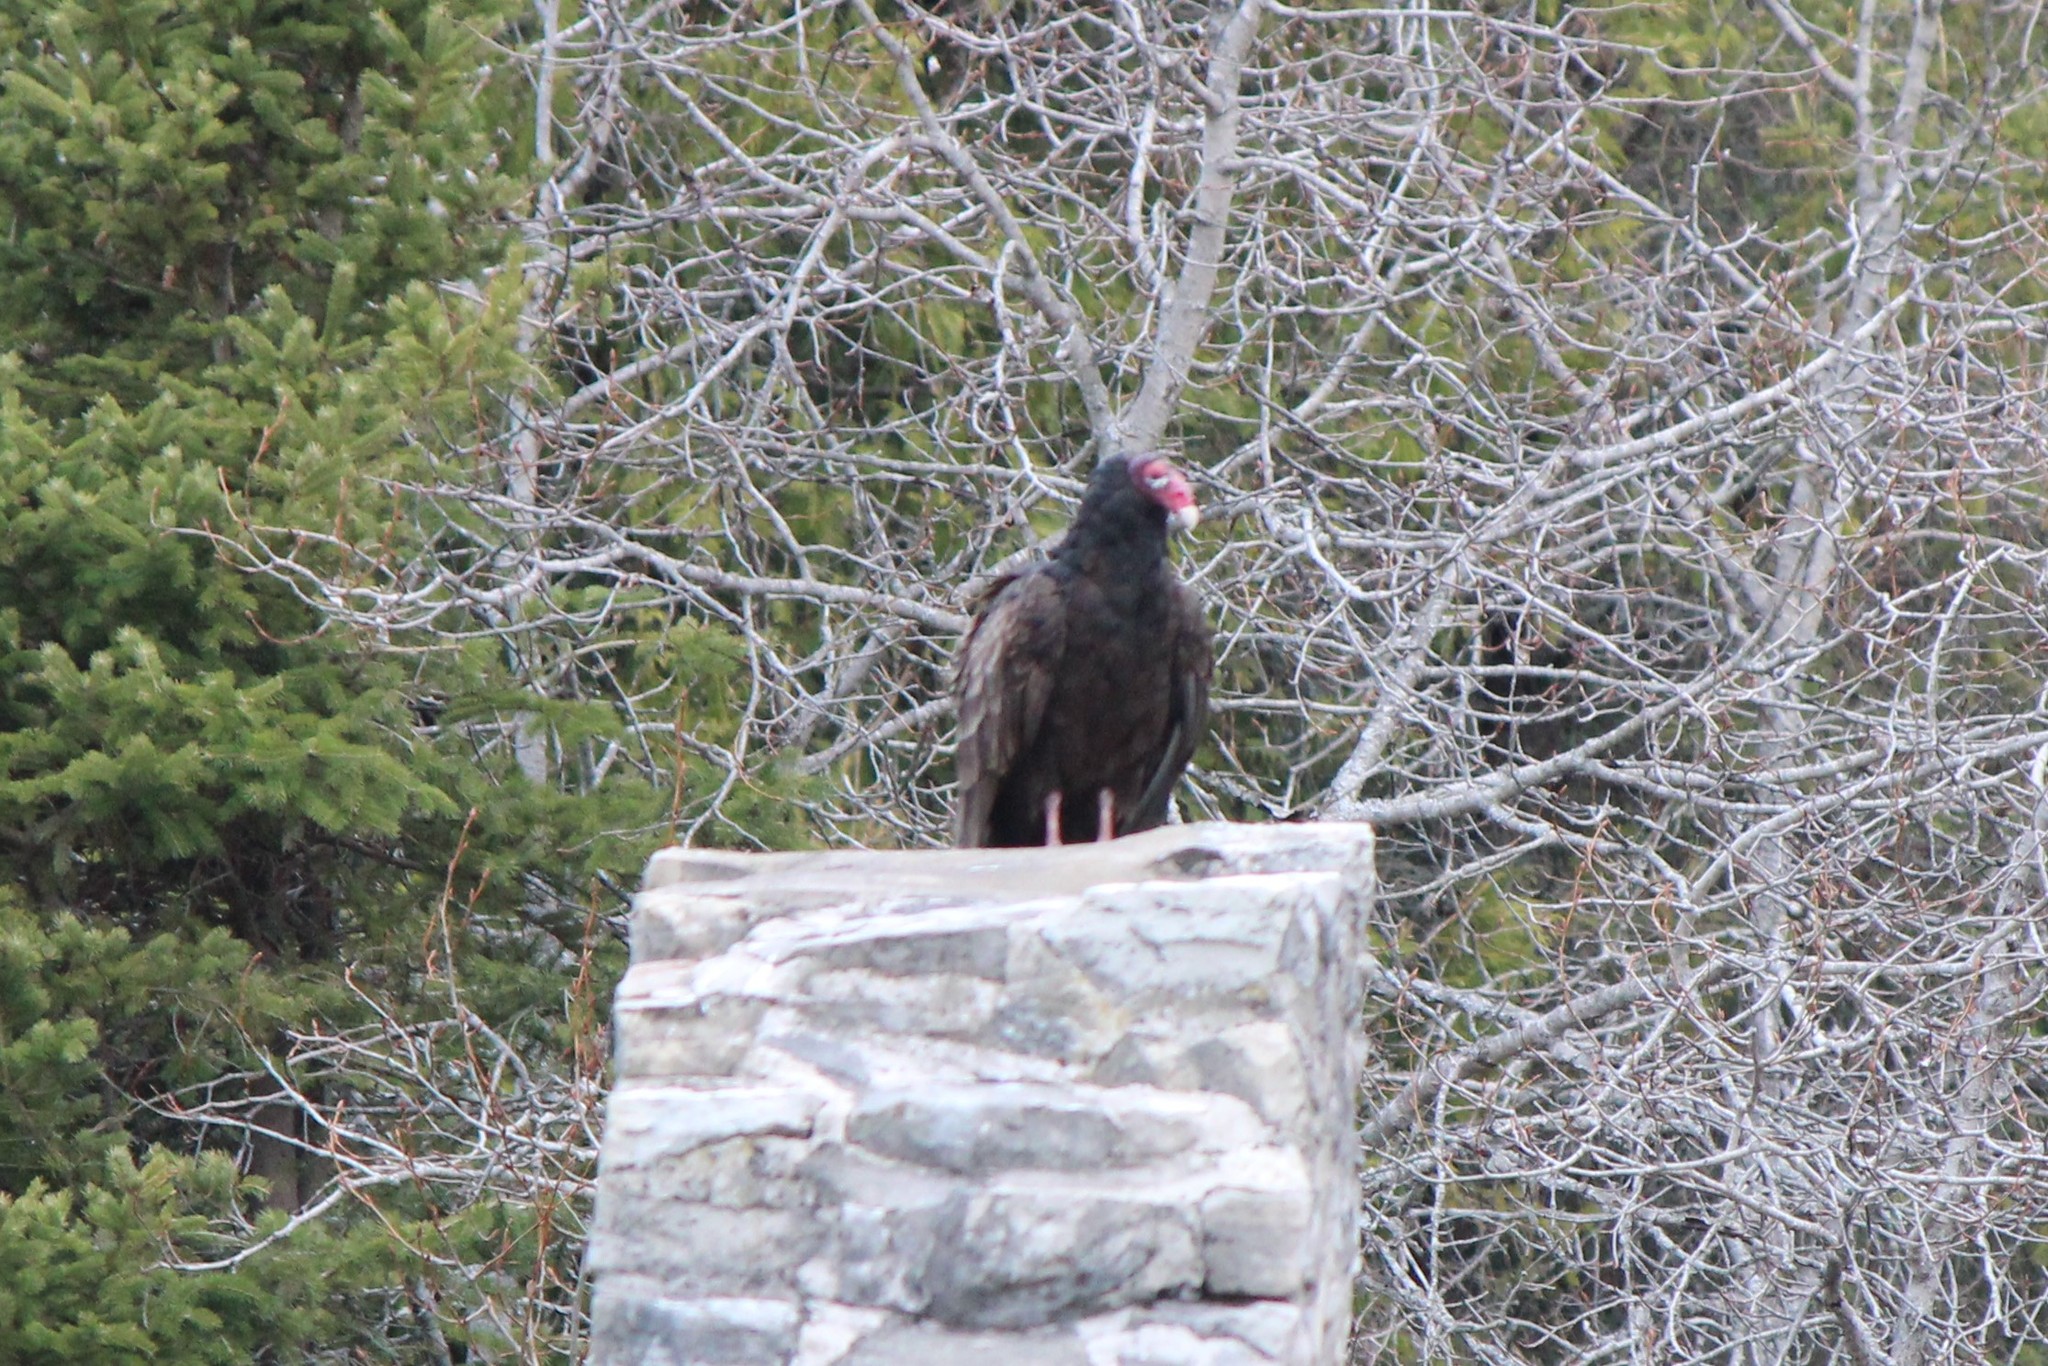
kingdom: Animalia
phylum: Chordata
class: Aves
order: Accipitriformes
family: Cathartidae
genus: Cathartes
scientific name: Cathartes aura
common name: Turkey vulture
